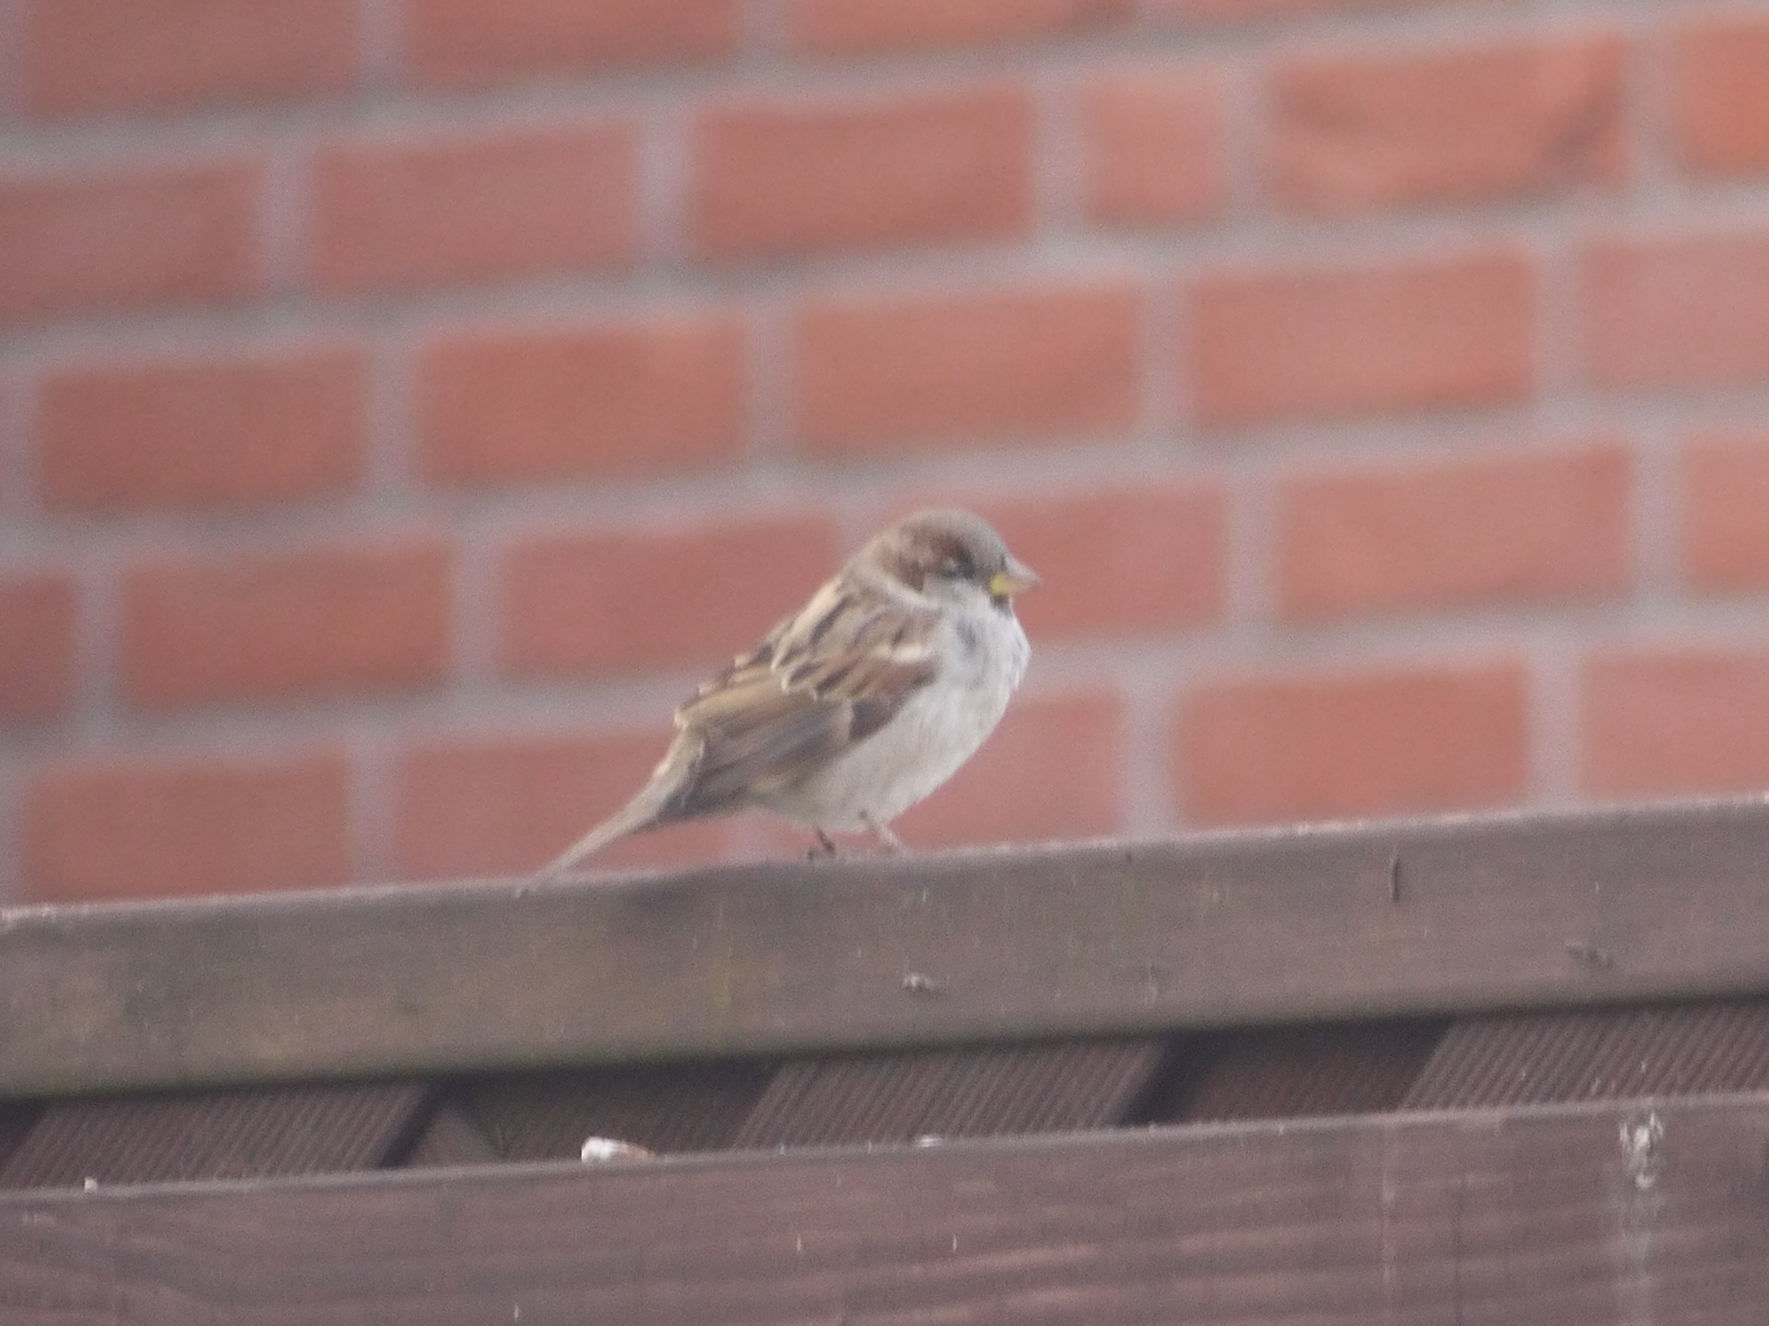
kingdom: Animalia
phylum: Chordata
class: Aves
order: Passeriformes
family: Passeridae
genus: Passer
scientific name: Passer domesticus
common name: House sparrow
